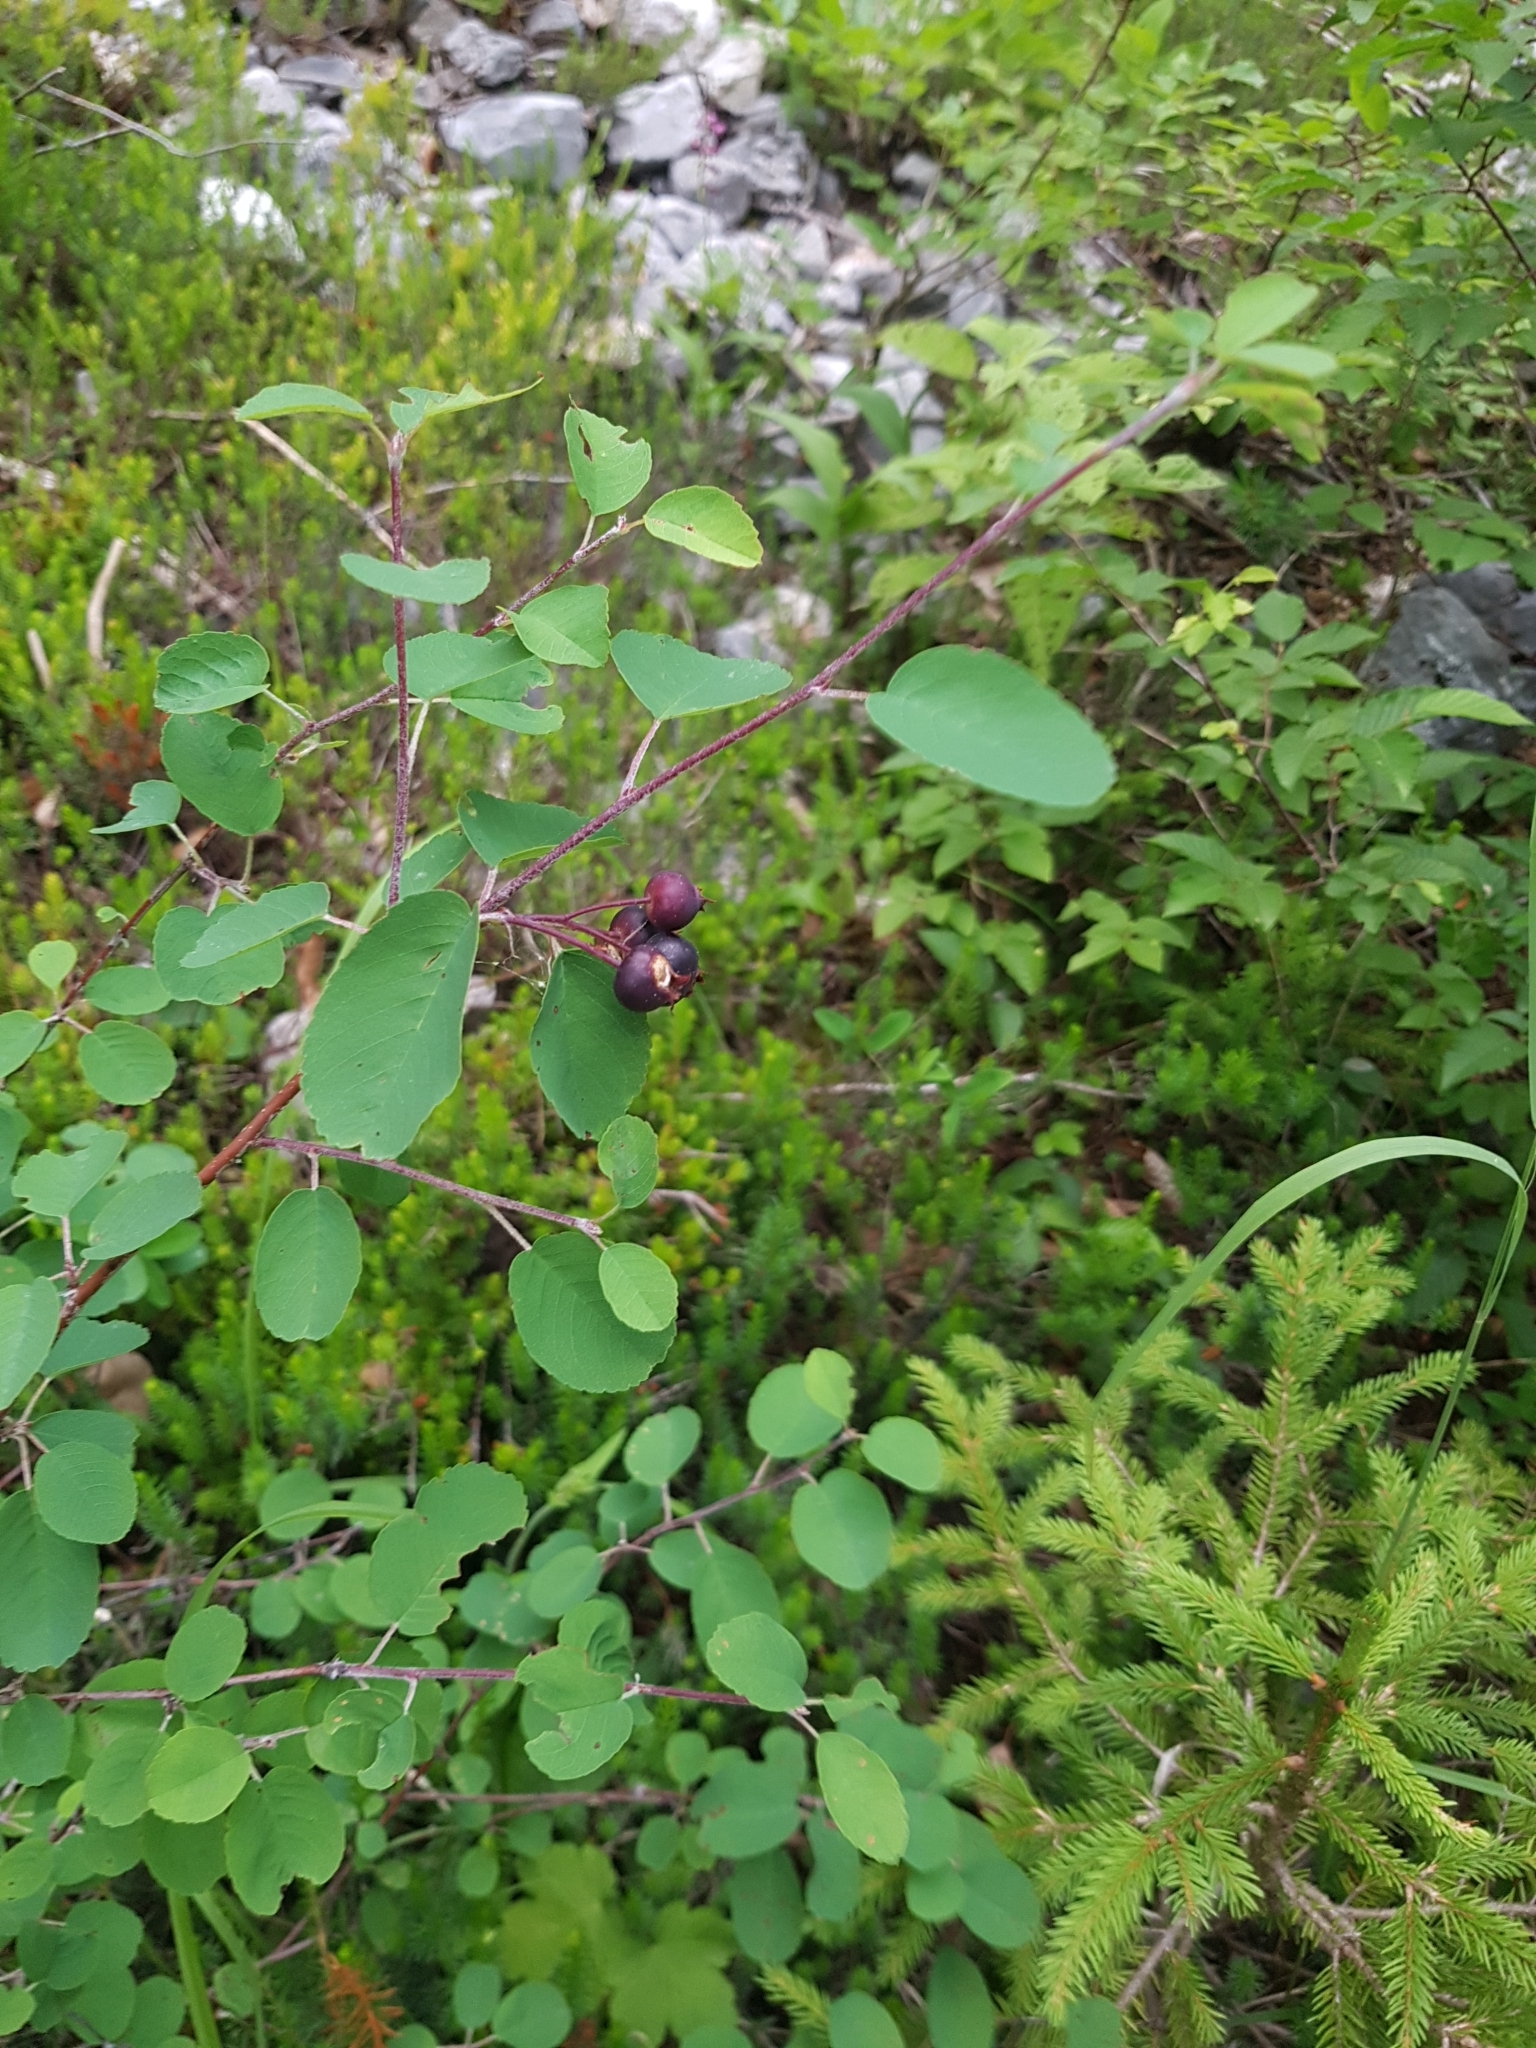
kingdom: Plantae
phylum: Tracheophyta
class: Magnoliopsida
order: Rosales
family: Rosaceae
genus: Amelanchier
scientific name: Amelanchier ovalis
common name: Serviceberry
